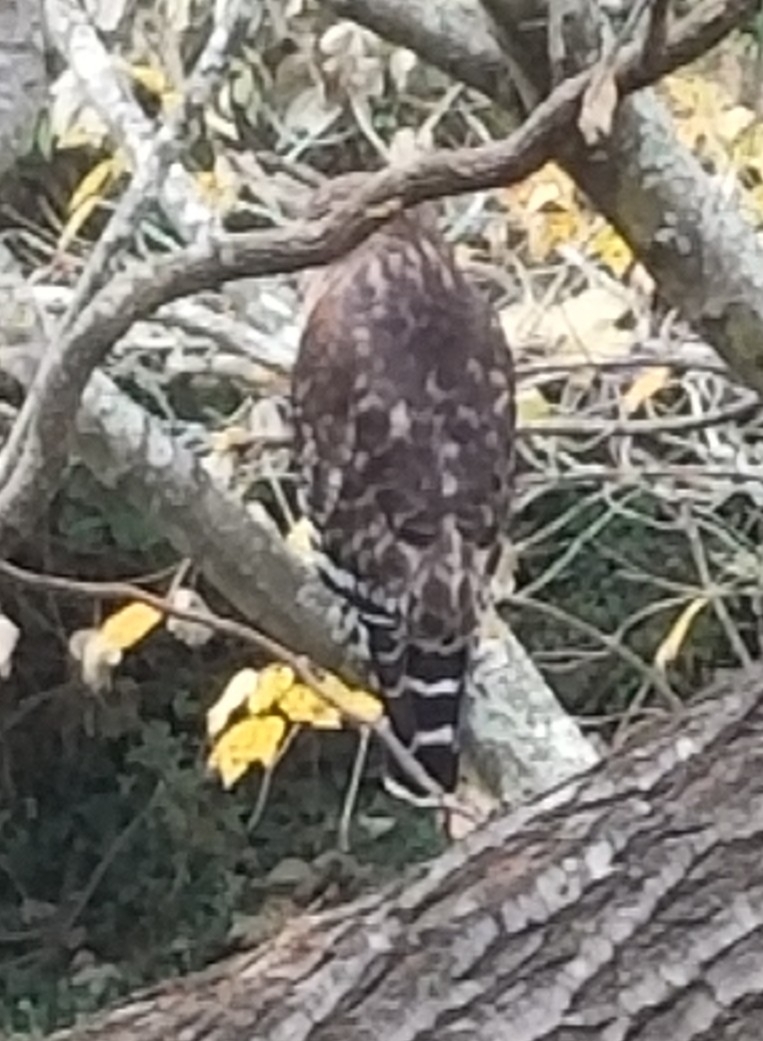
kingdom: Animalia
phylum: Chordata
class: Aves
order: Accipitriformes
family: Accipitridae
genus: Buteo
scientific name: Buteo lineatus
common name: Red-shouldered hawk
